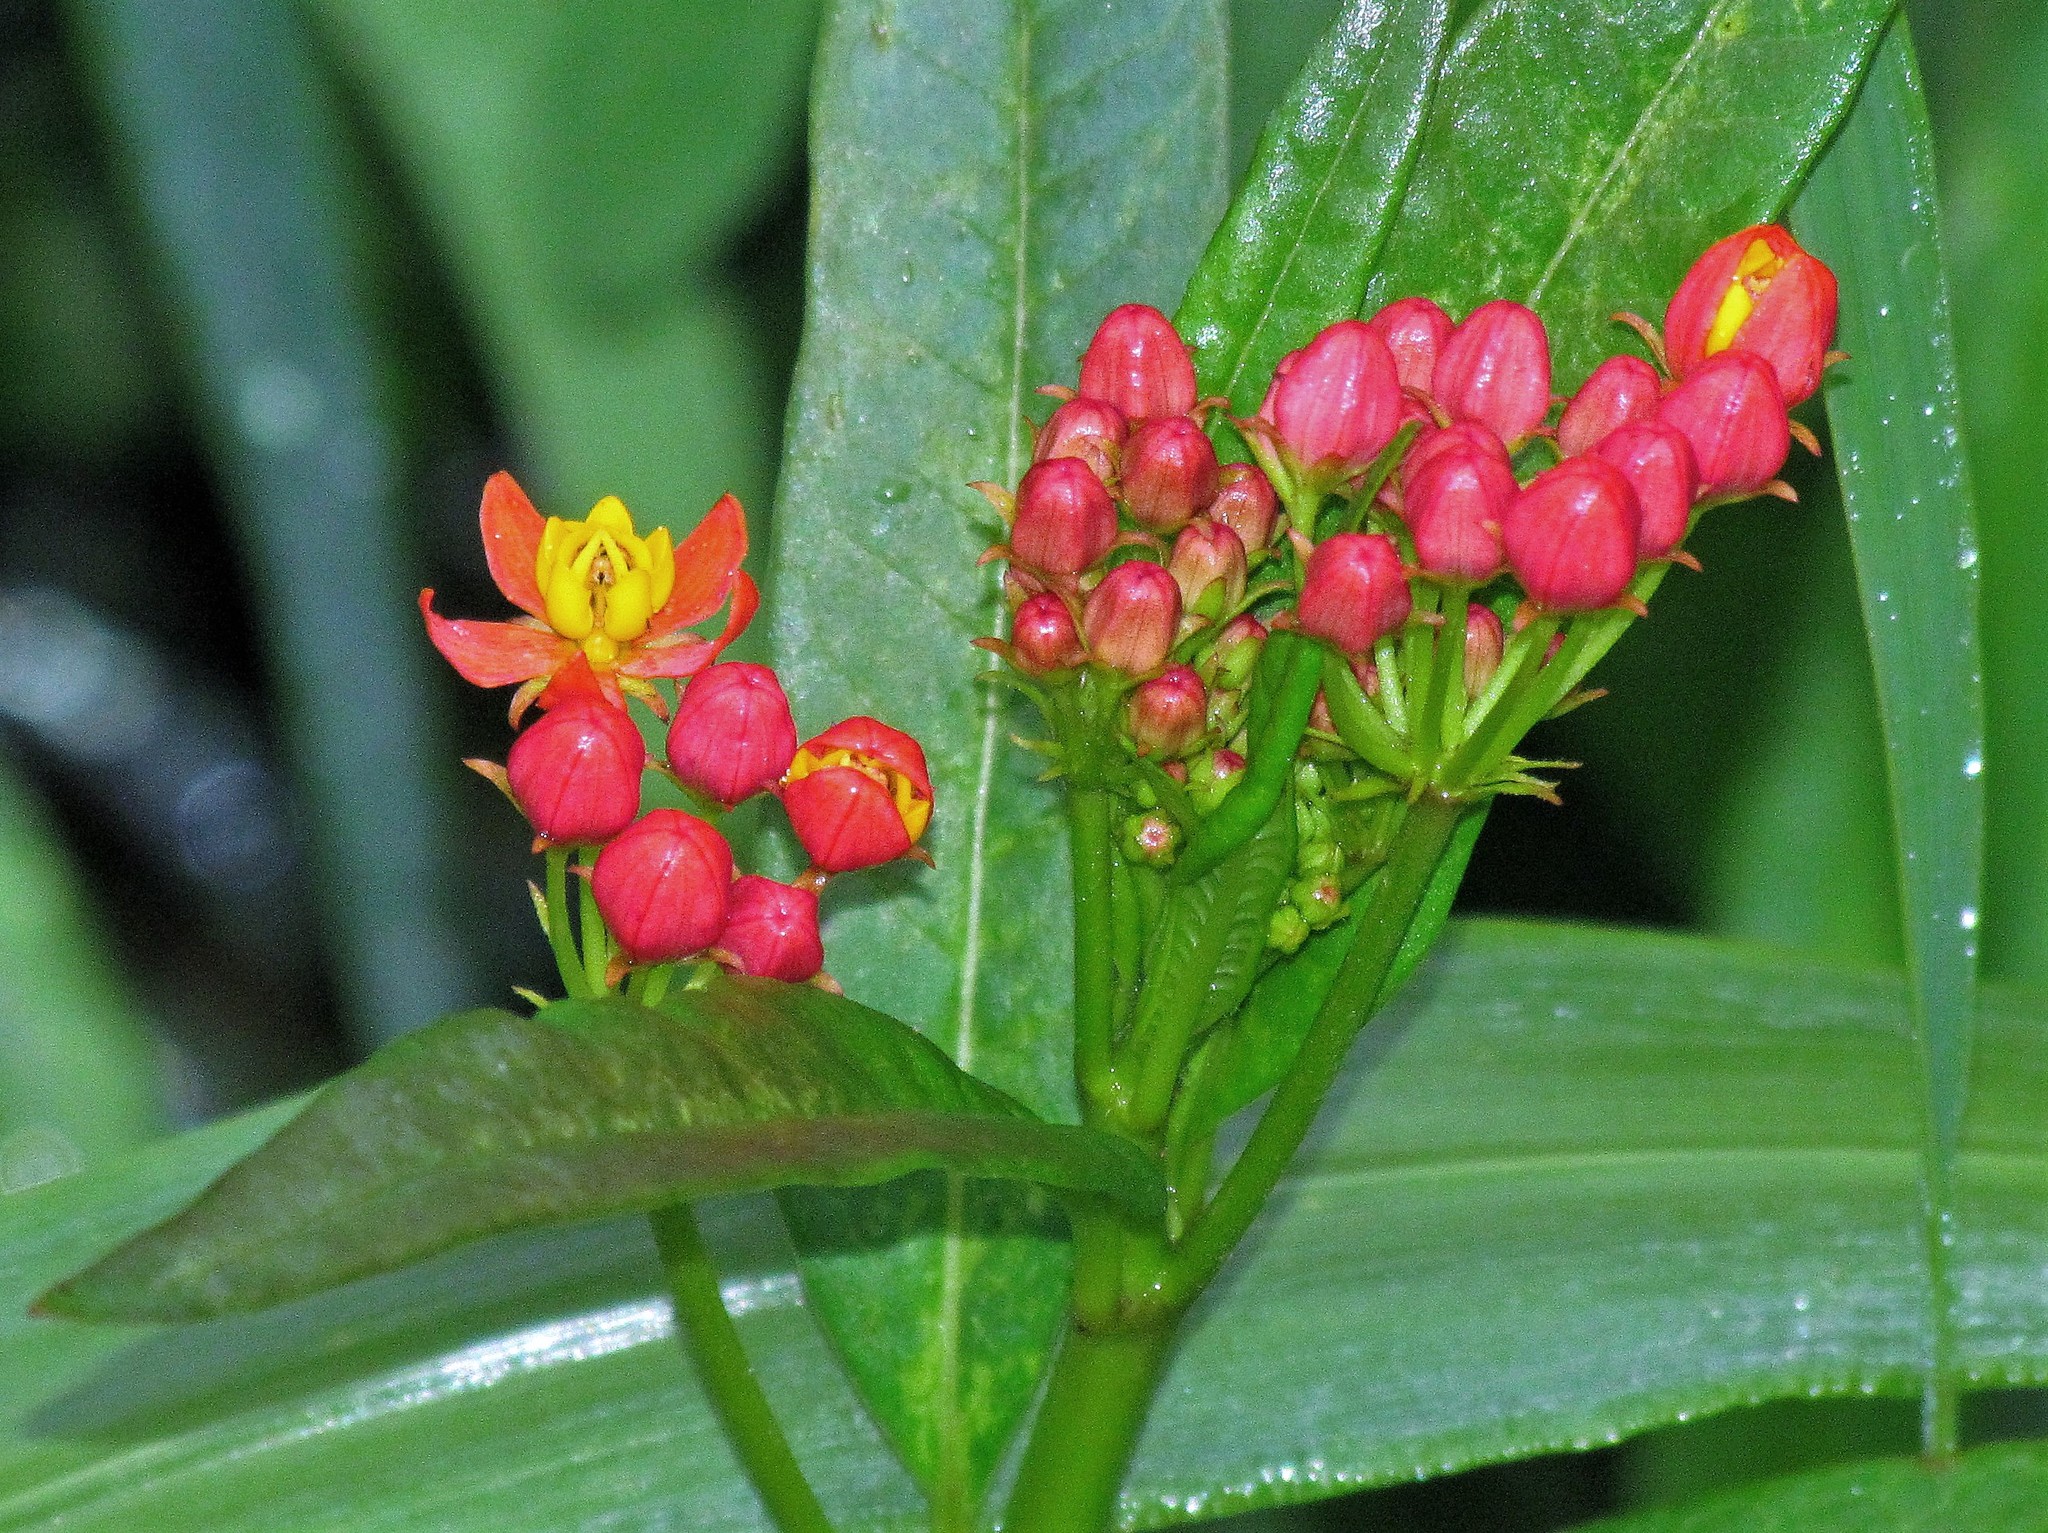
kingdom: Plantae
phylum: Tracheophyta
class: Magnoliopsida
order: Gentianales
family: Apocynaceae
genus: Asclepias
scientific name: Asclepias curassavica
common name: Bloodflower
